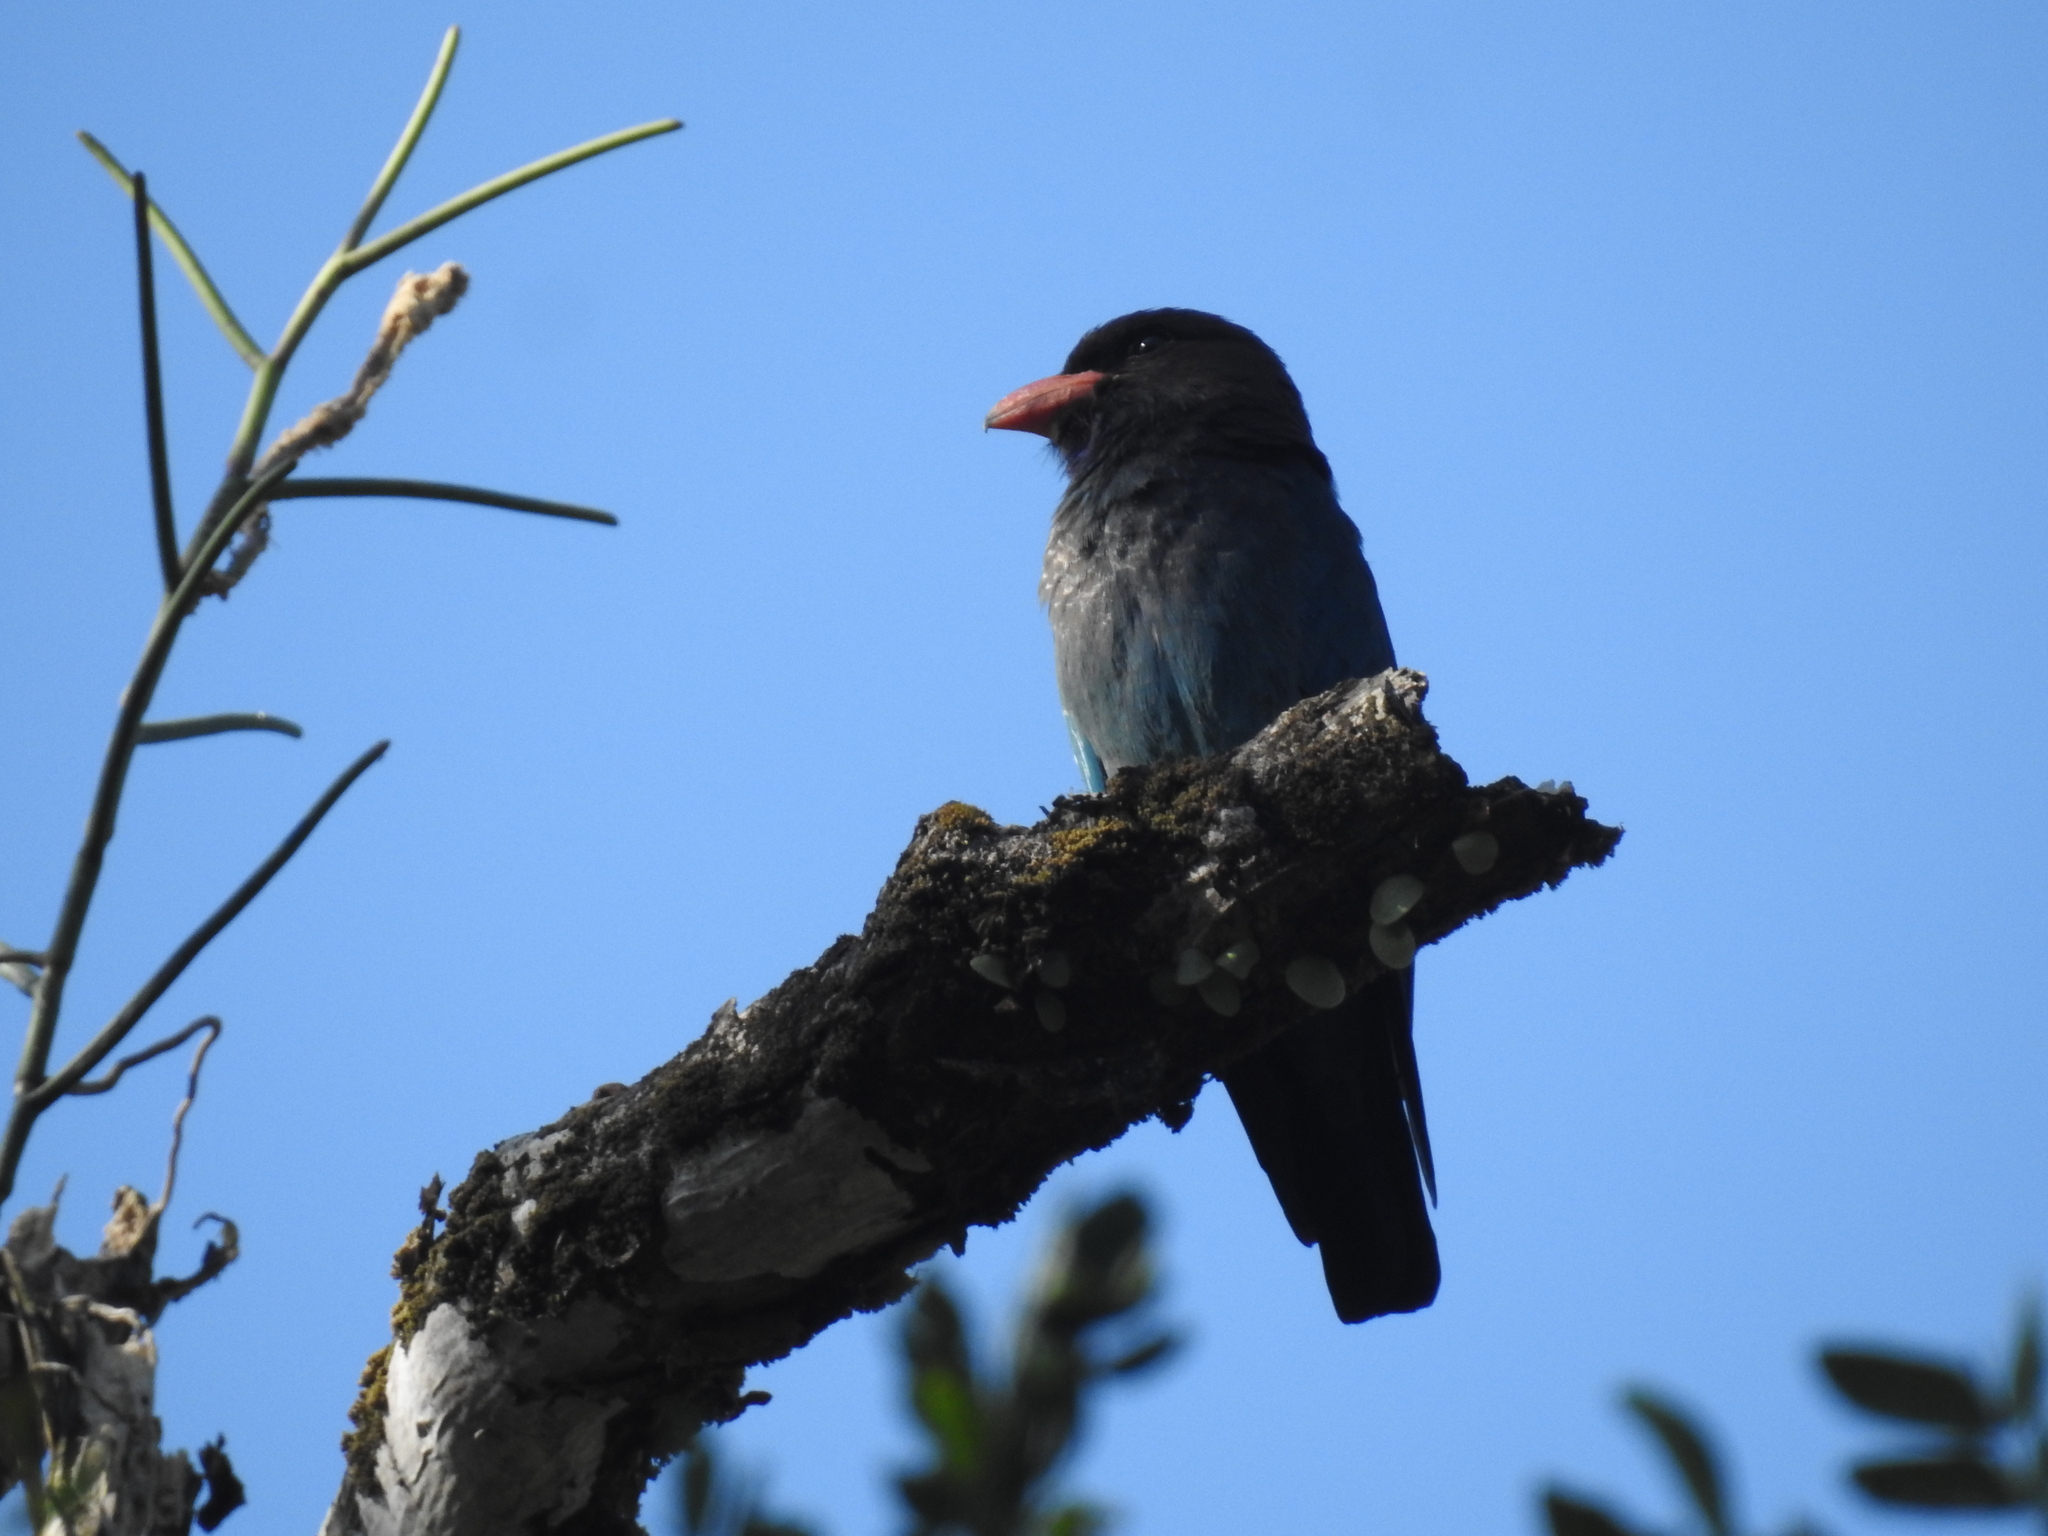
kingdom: Animalia
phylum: Chordata
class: Aves
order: Coraciiformes
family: Coraciidae
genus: Eurystomus
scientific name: Eurystomus orientalis
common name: Oriental dollarbird
